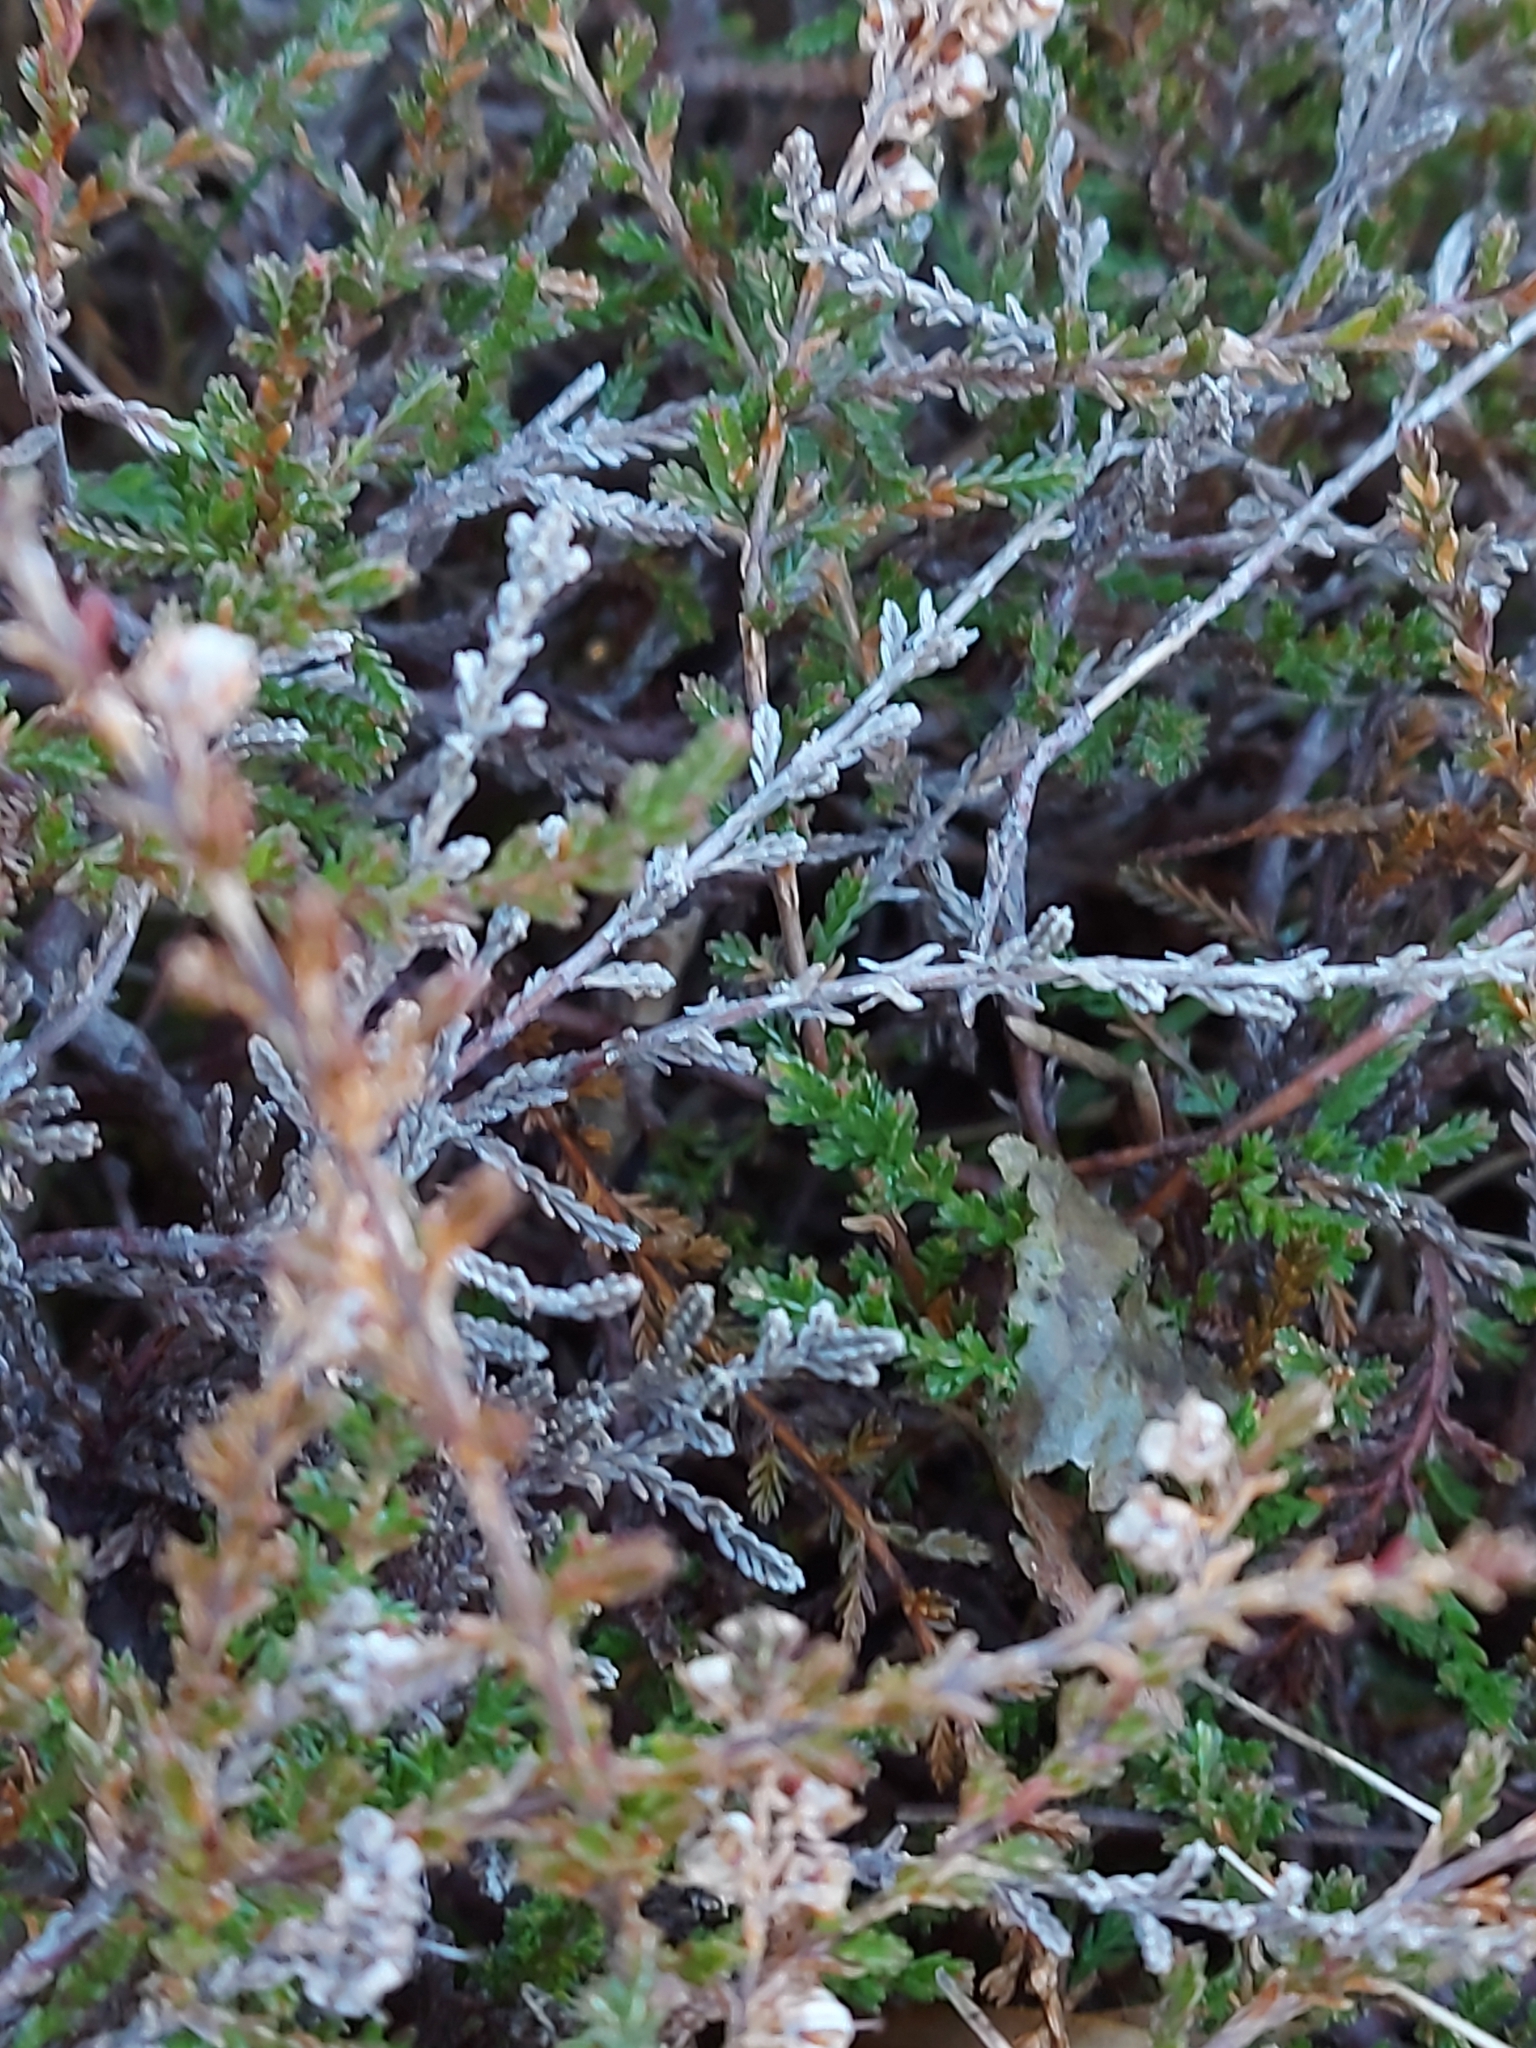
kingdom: Plantae
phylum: Tracheophyta
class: Magnoliopsida
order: Ericales
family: Ericaceae
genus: Calluna
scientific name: Calluna vulgaris
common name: Heather
